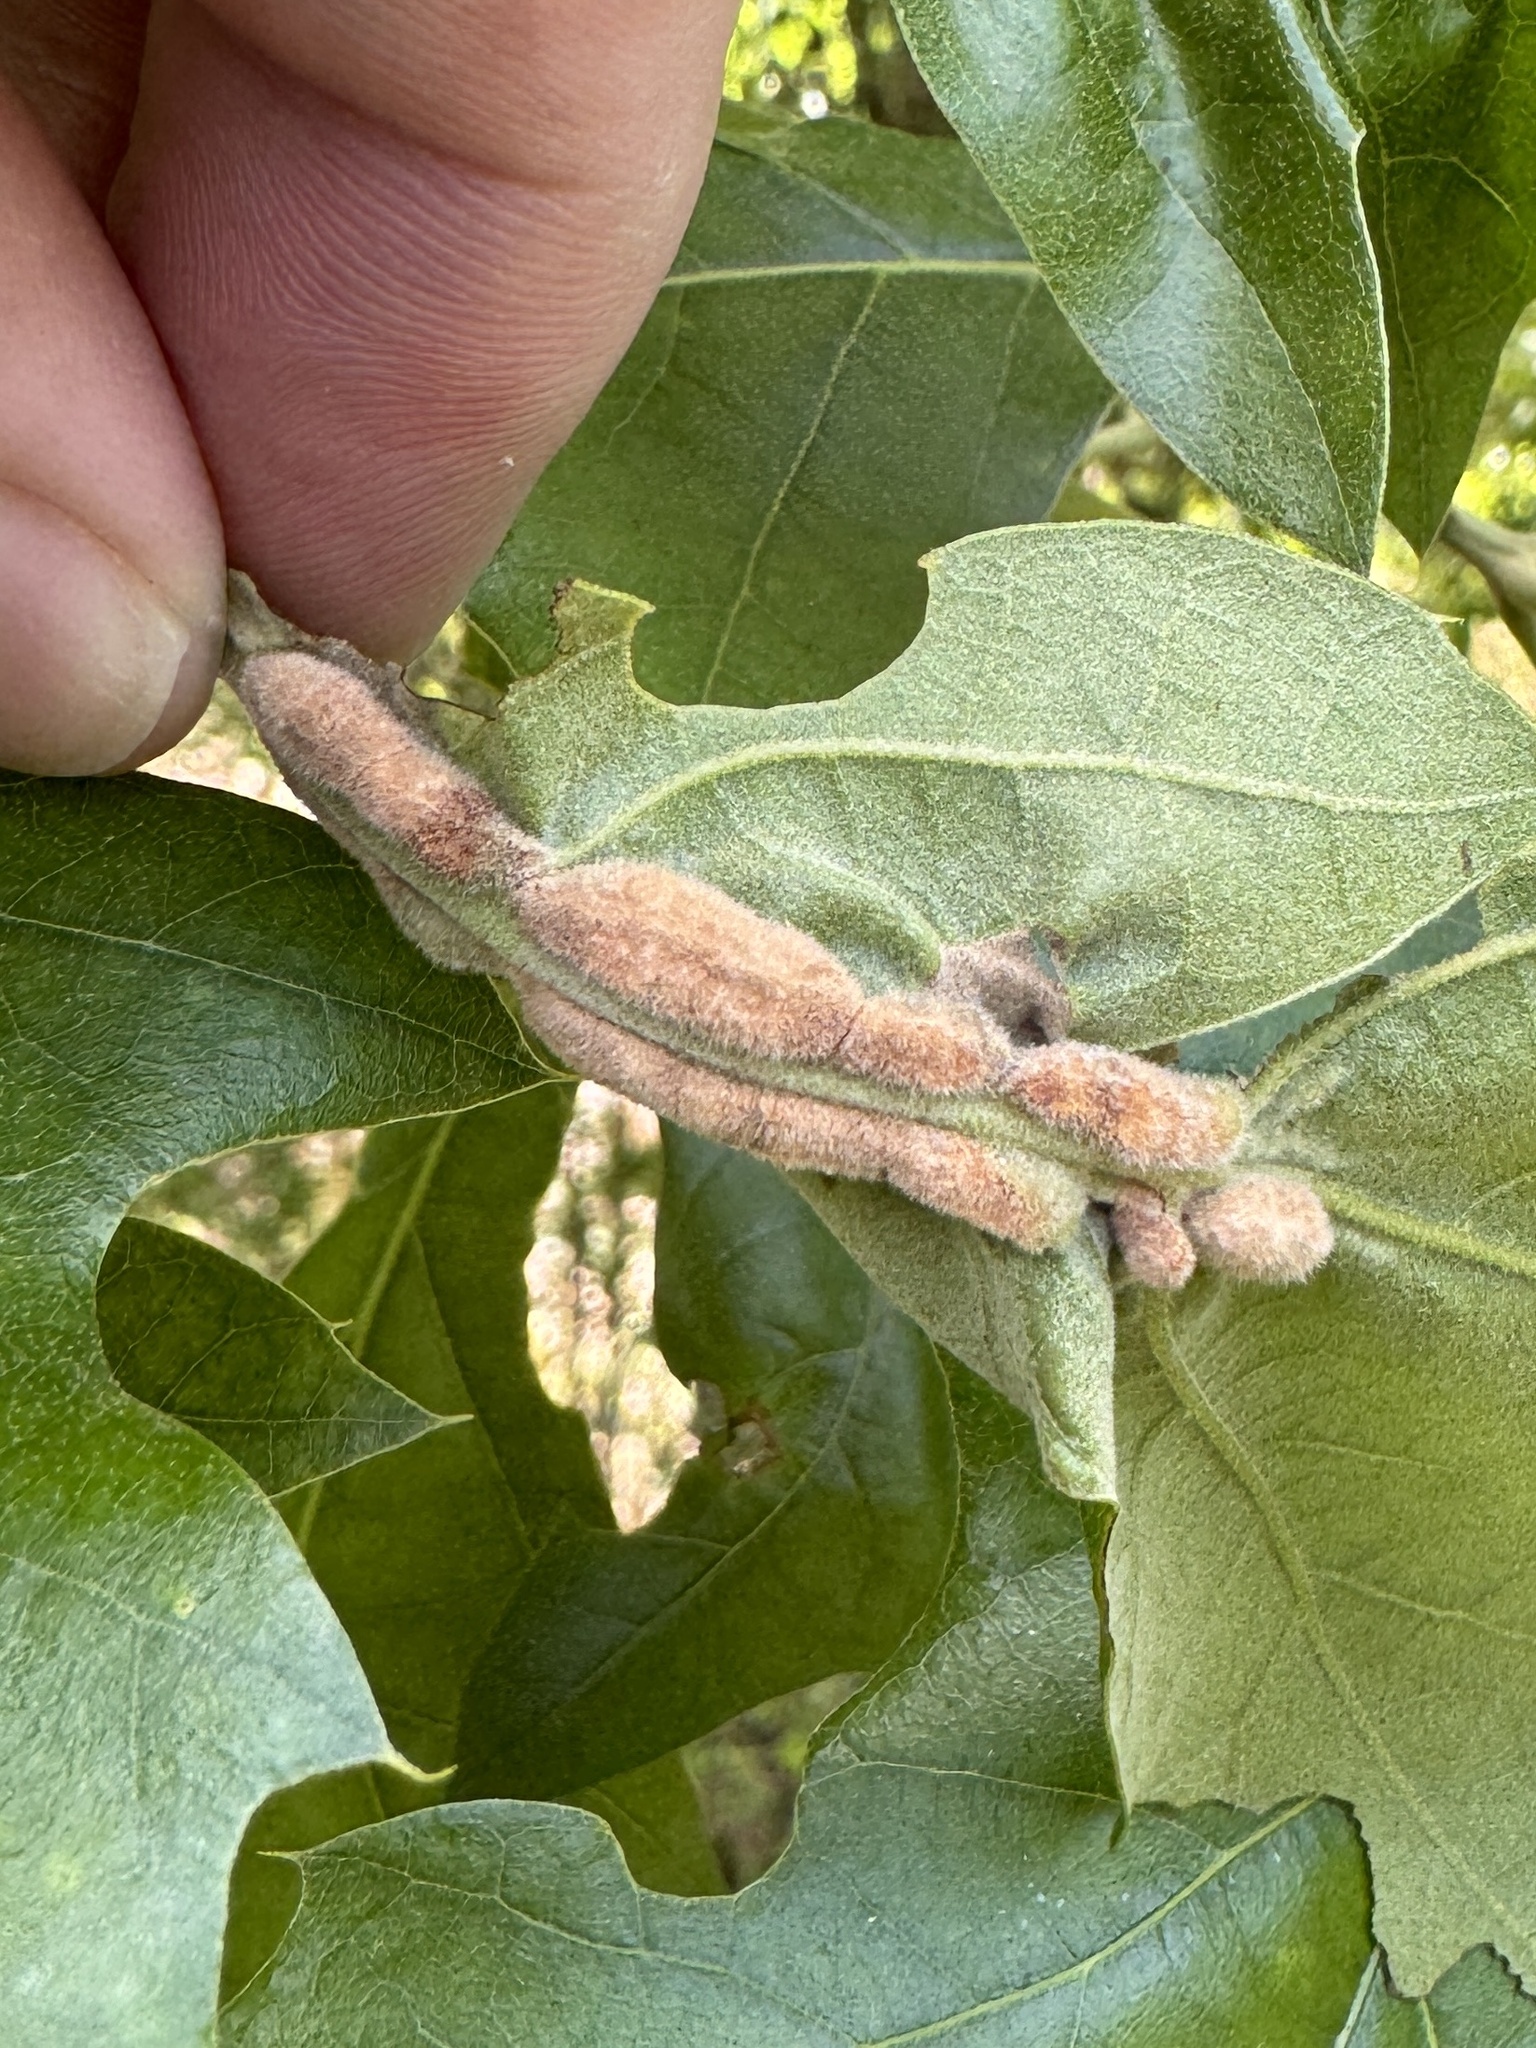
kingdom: Animalia
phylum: Arthropoda
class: Insecta
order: Diptera
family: Cecidomyiidae
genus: Macrodiplosis
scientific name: Macrodiplosis niveipila
